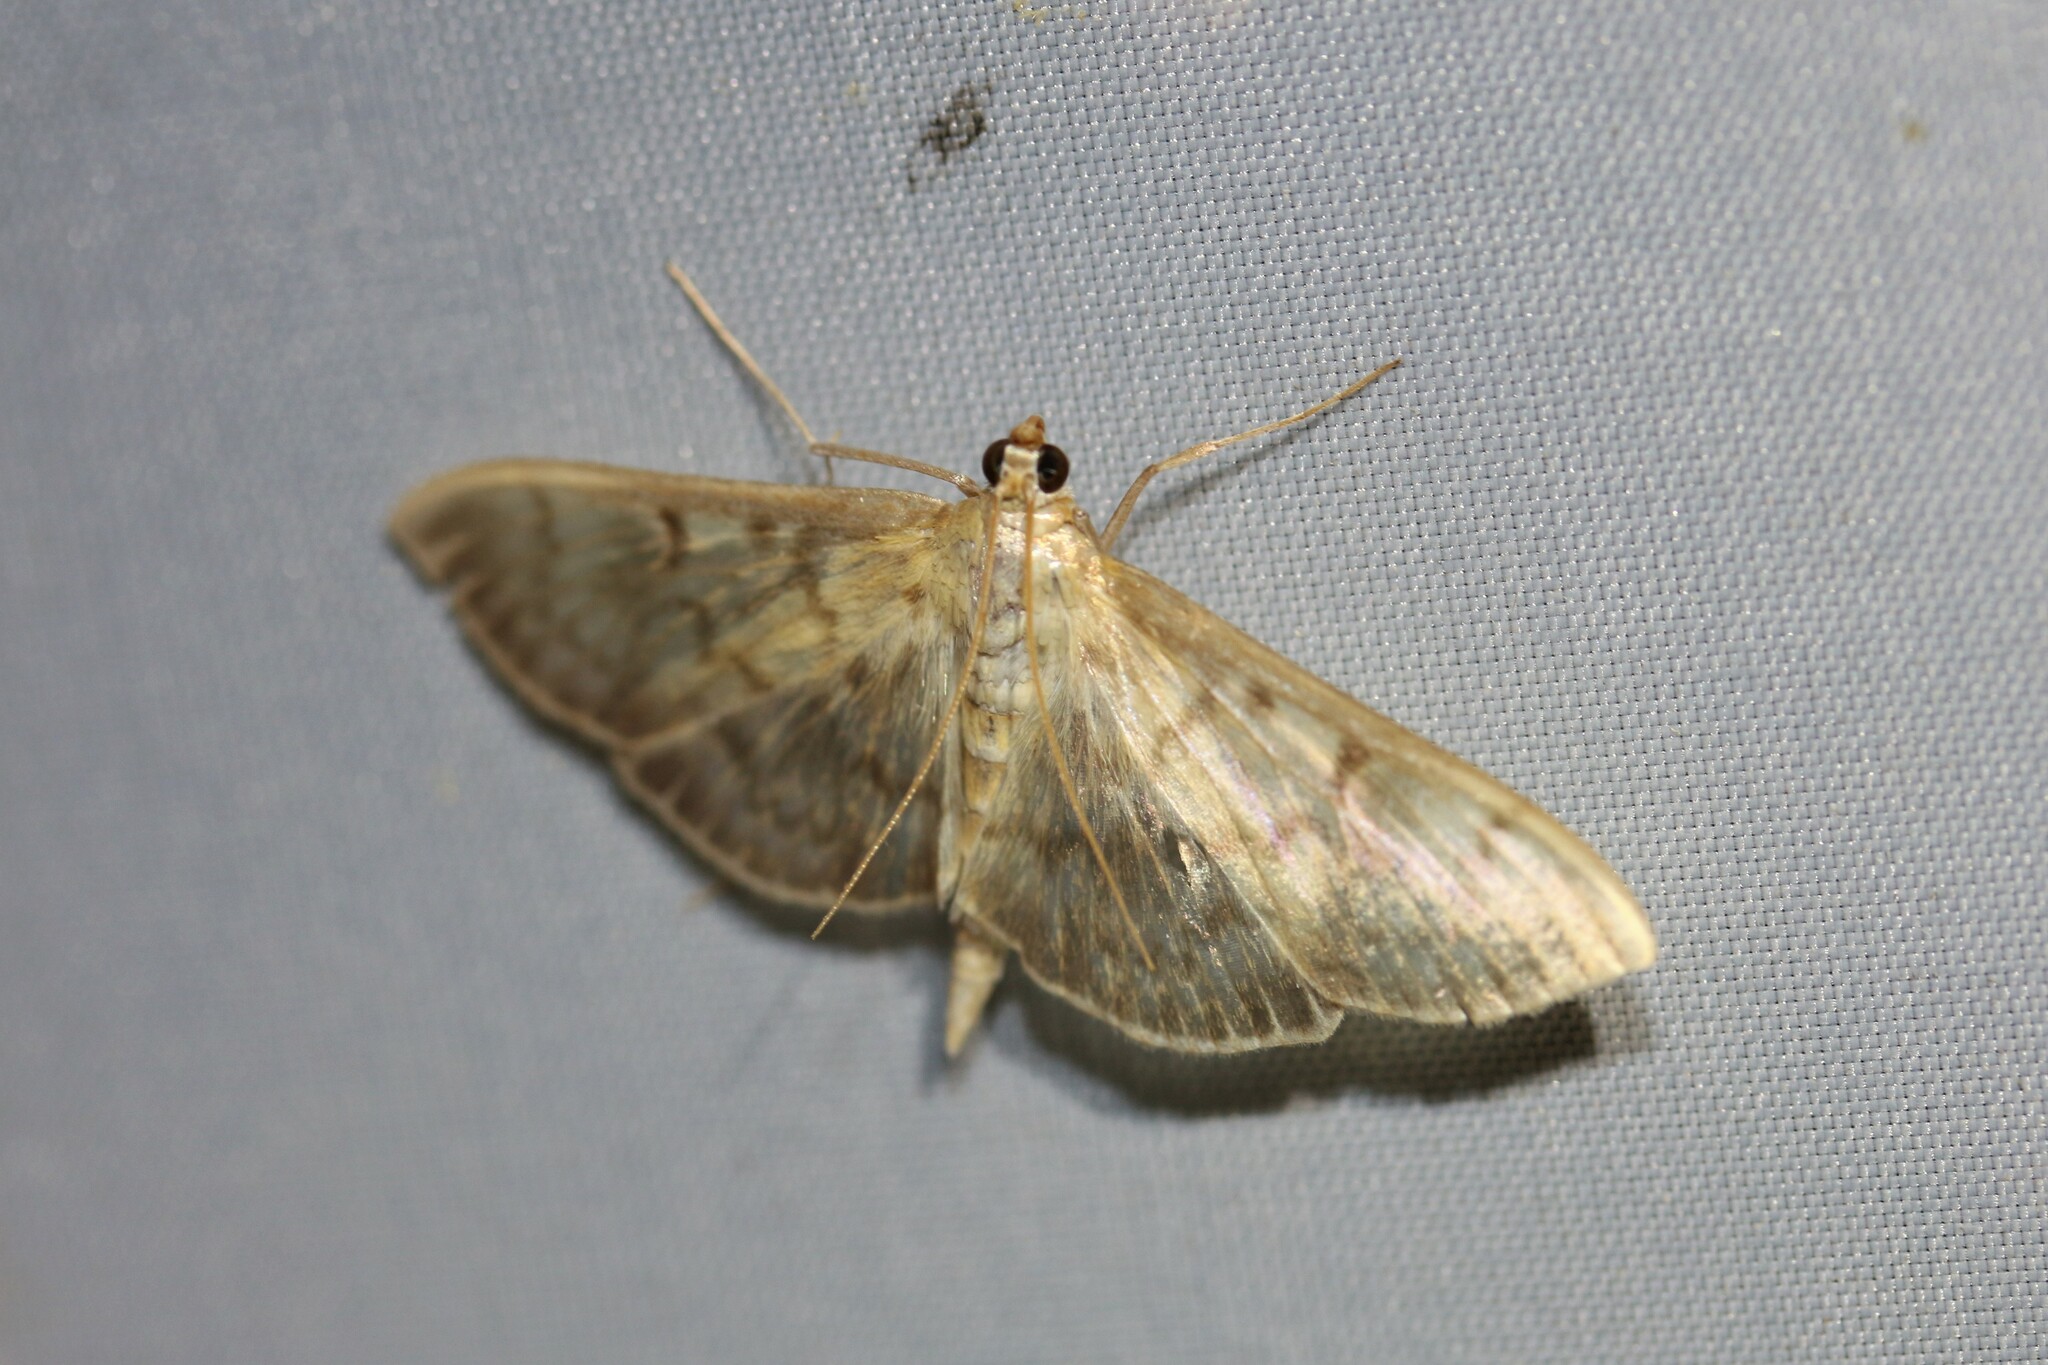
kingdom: Animalia
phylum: Arthropoda
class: Insecta
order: Lepidoptera
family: Crambidae
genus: Patania
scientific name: Patania ruralis
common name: Mother of pearl
